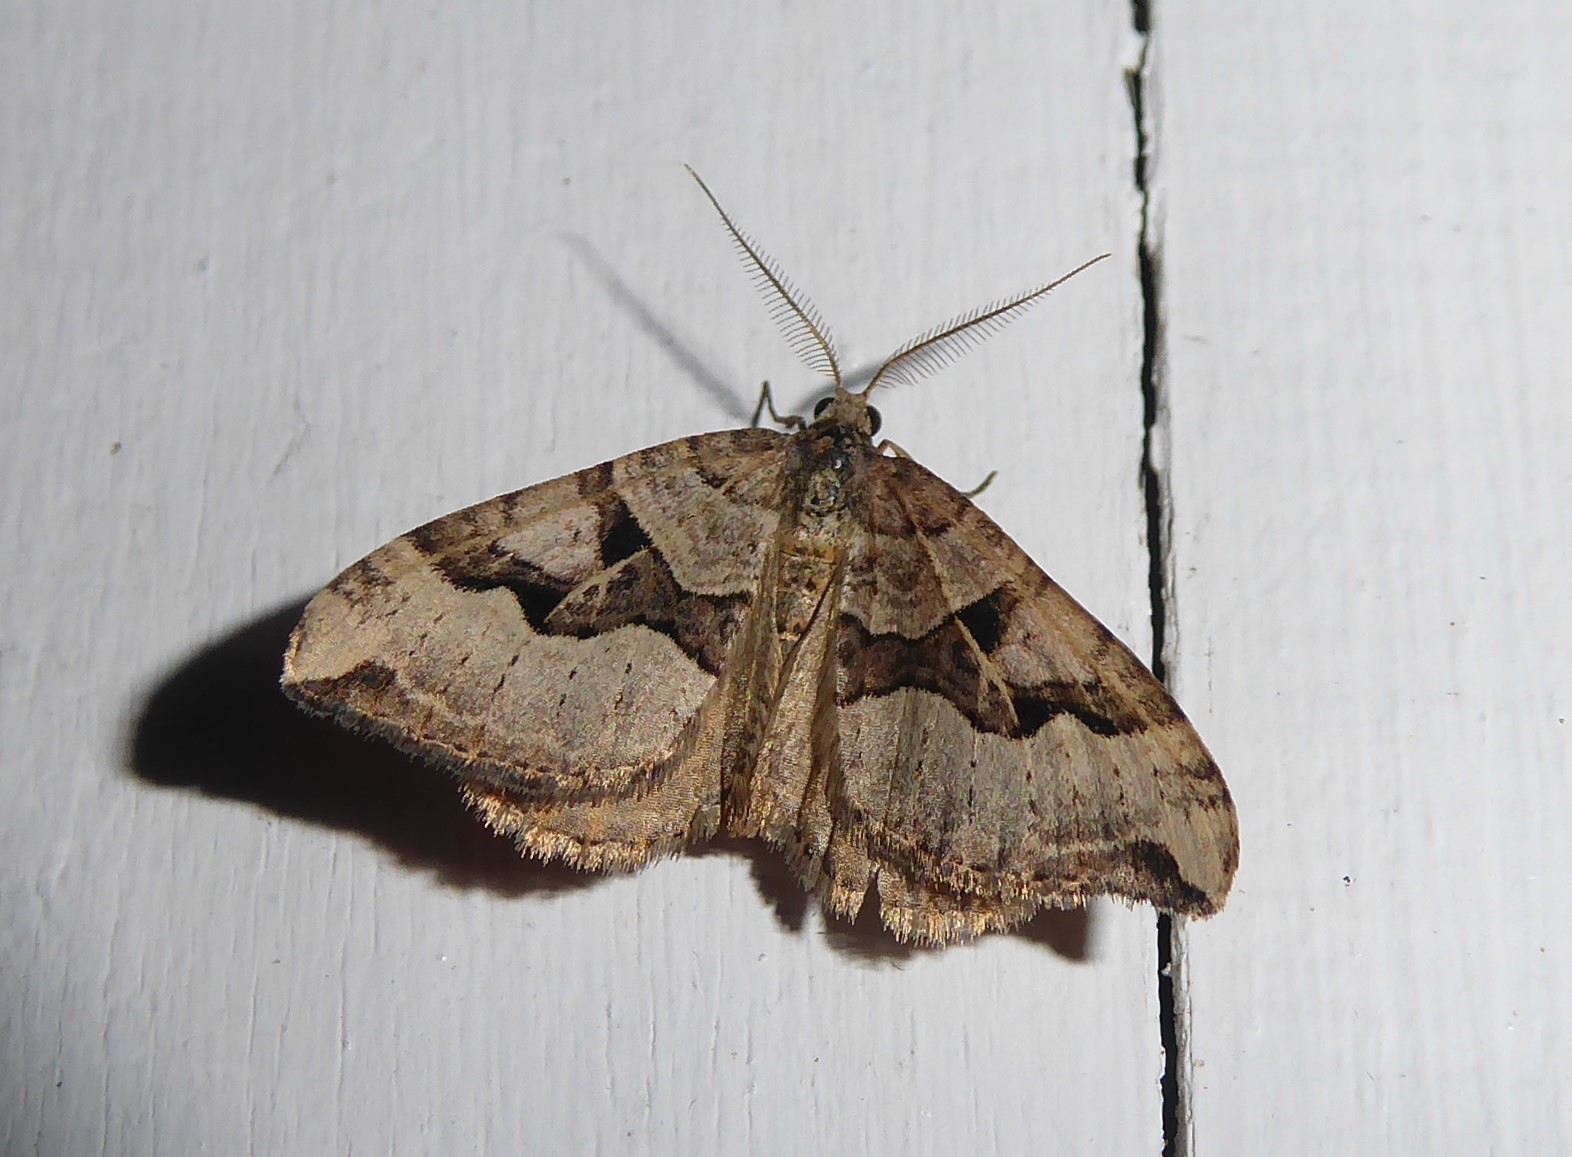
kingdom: Animalia
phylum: Arthropoda
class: Insecta
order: Lepidoptera
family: Geometridae
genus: Xanthorhoe
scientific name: Xanthorhoe semifissata
